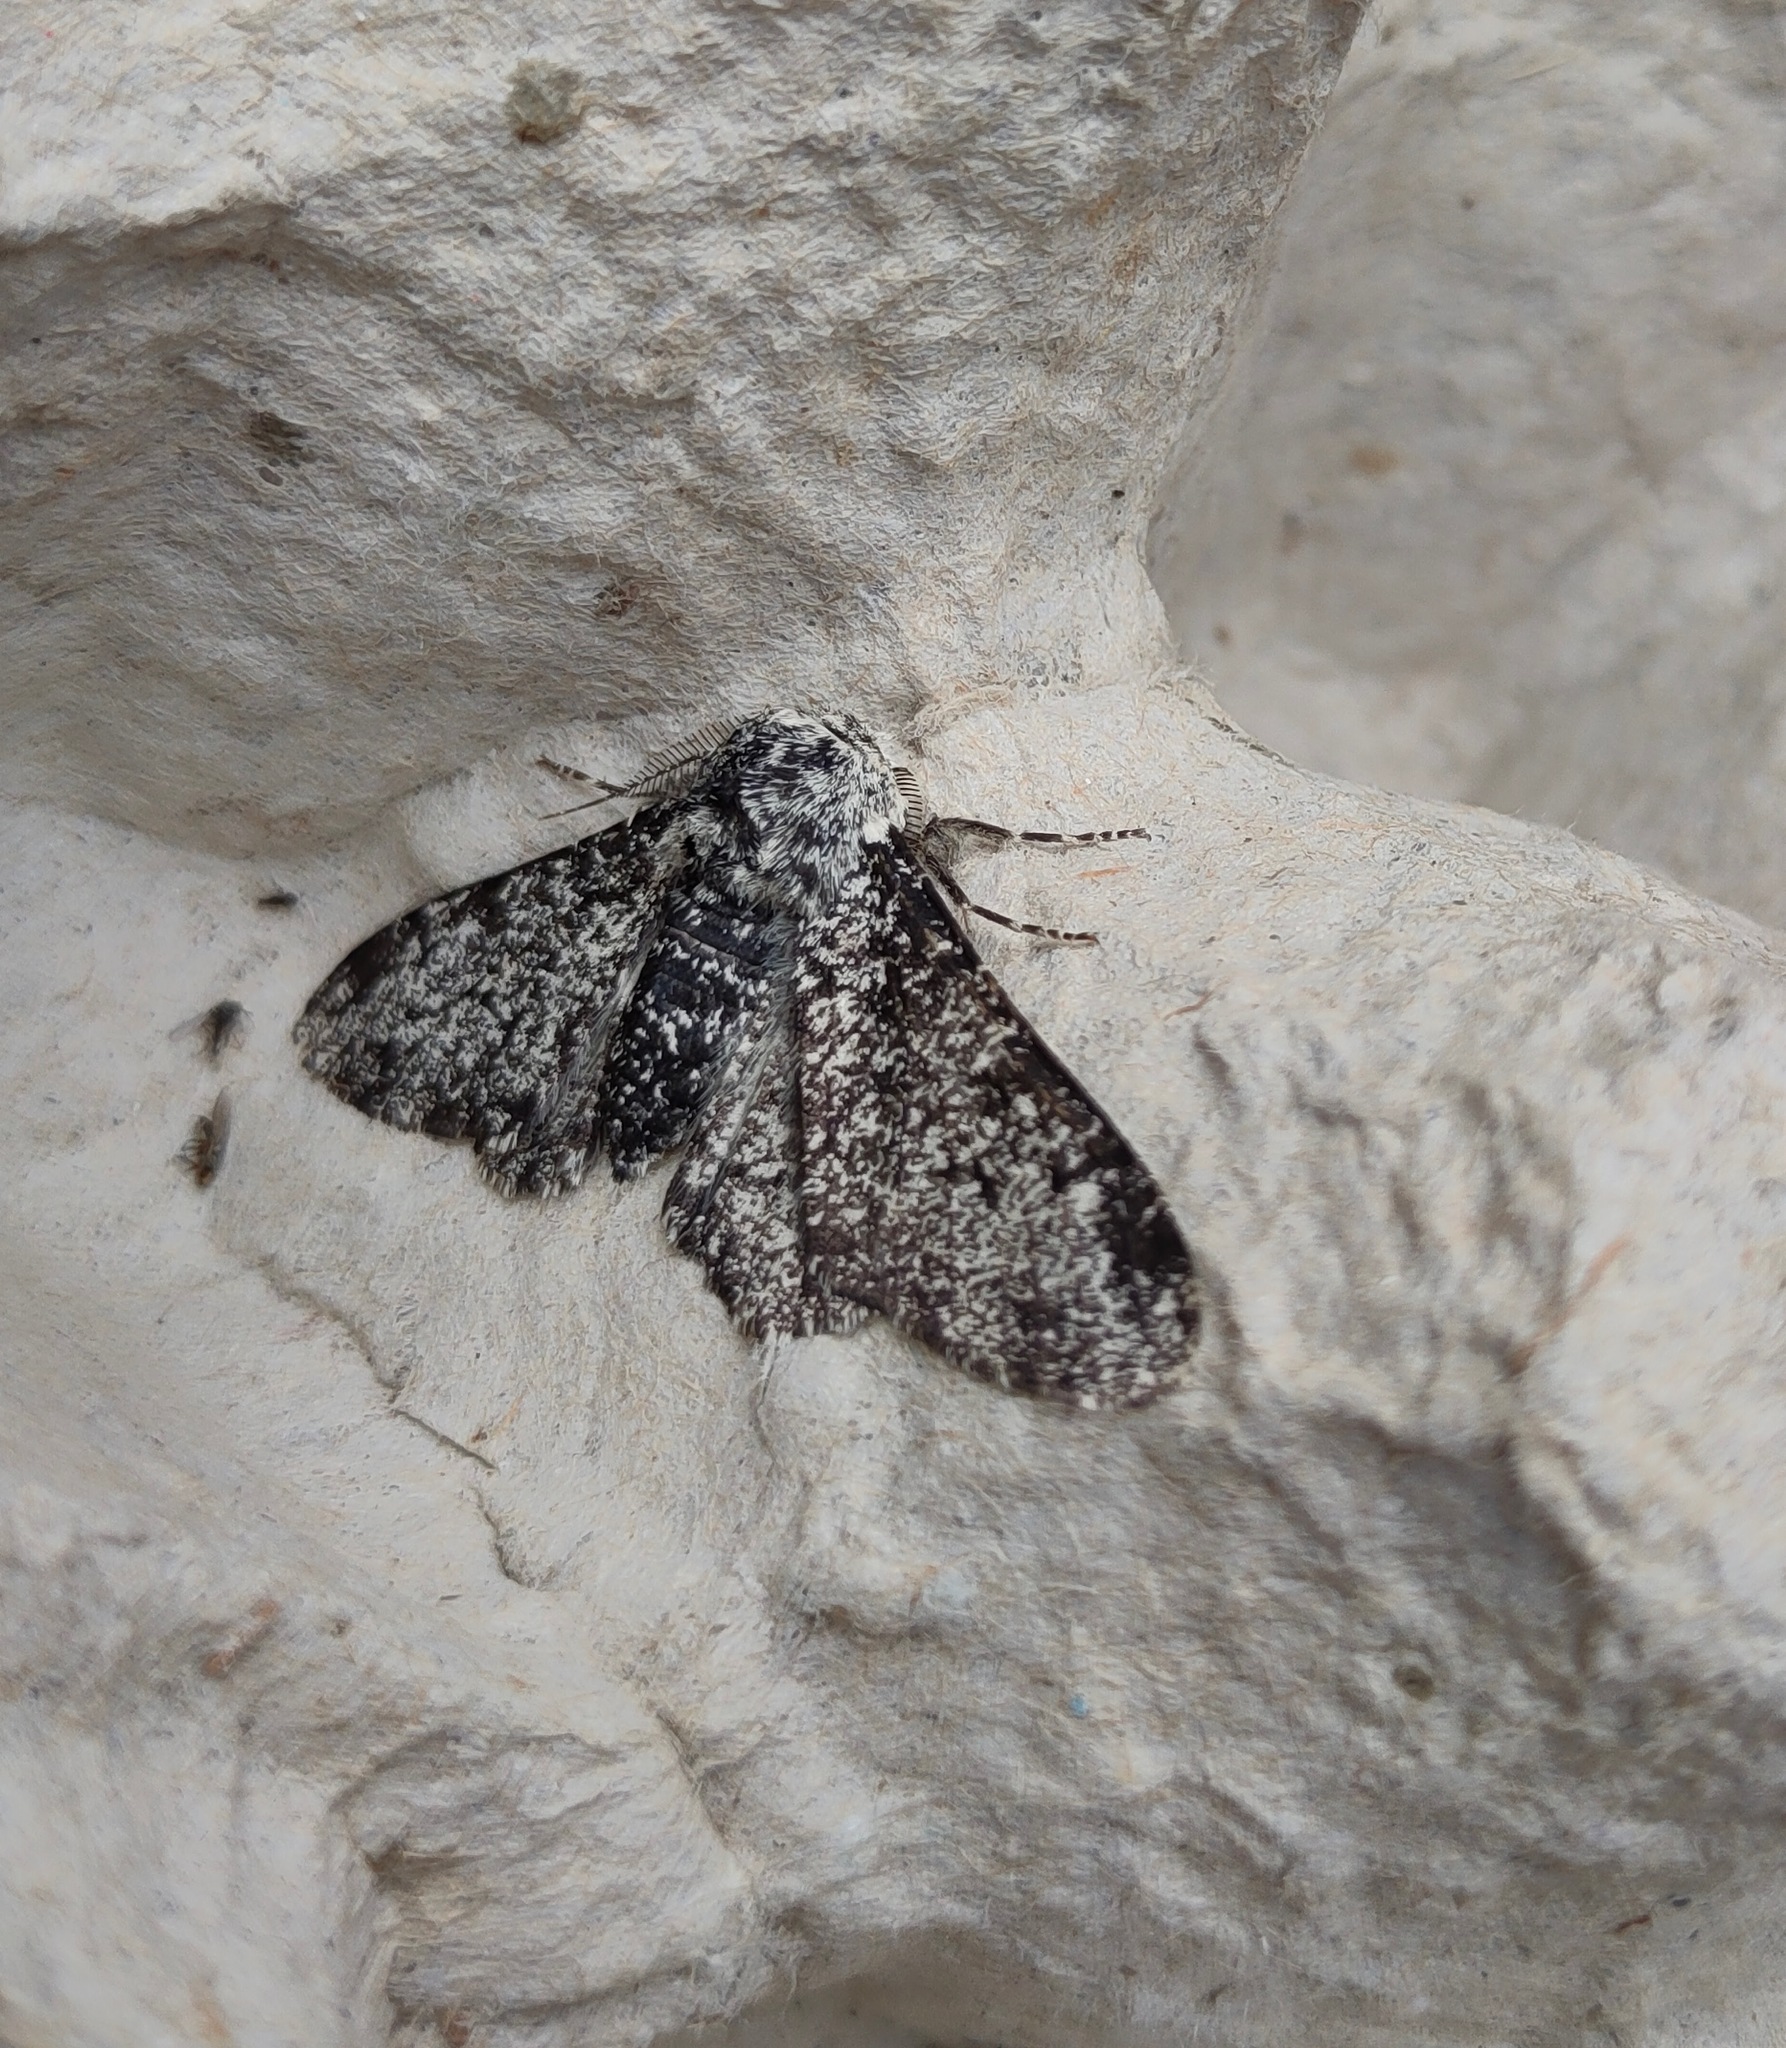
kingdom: Animalia
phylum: Arthropoda
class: Insecta
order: Lepidoptera
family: Geometridae
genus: Biston
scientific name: Biston betularia
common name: Peppered moth
